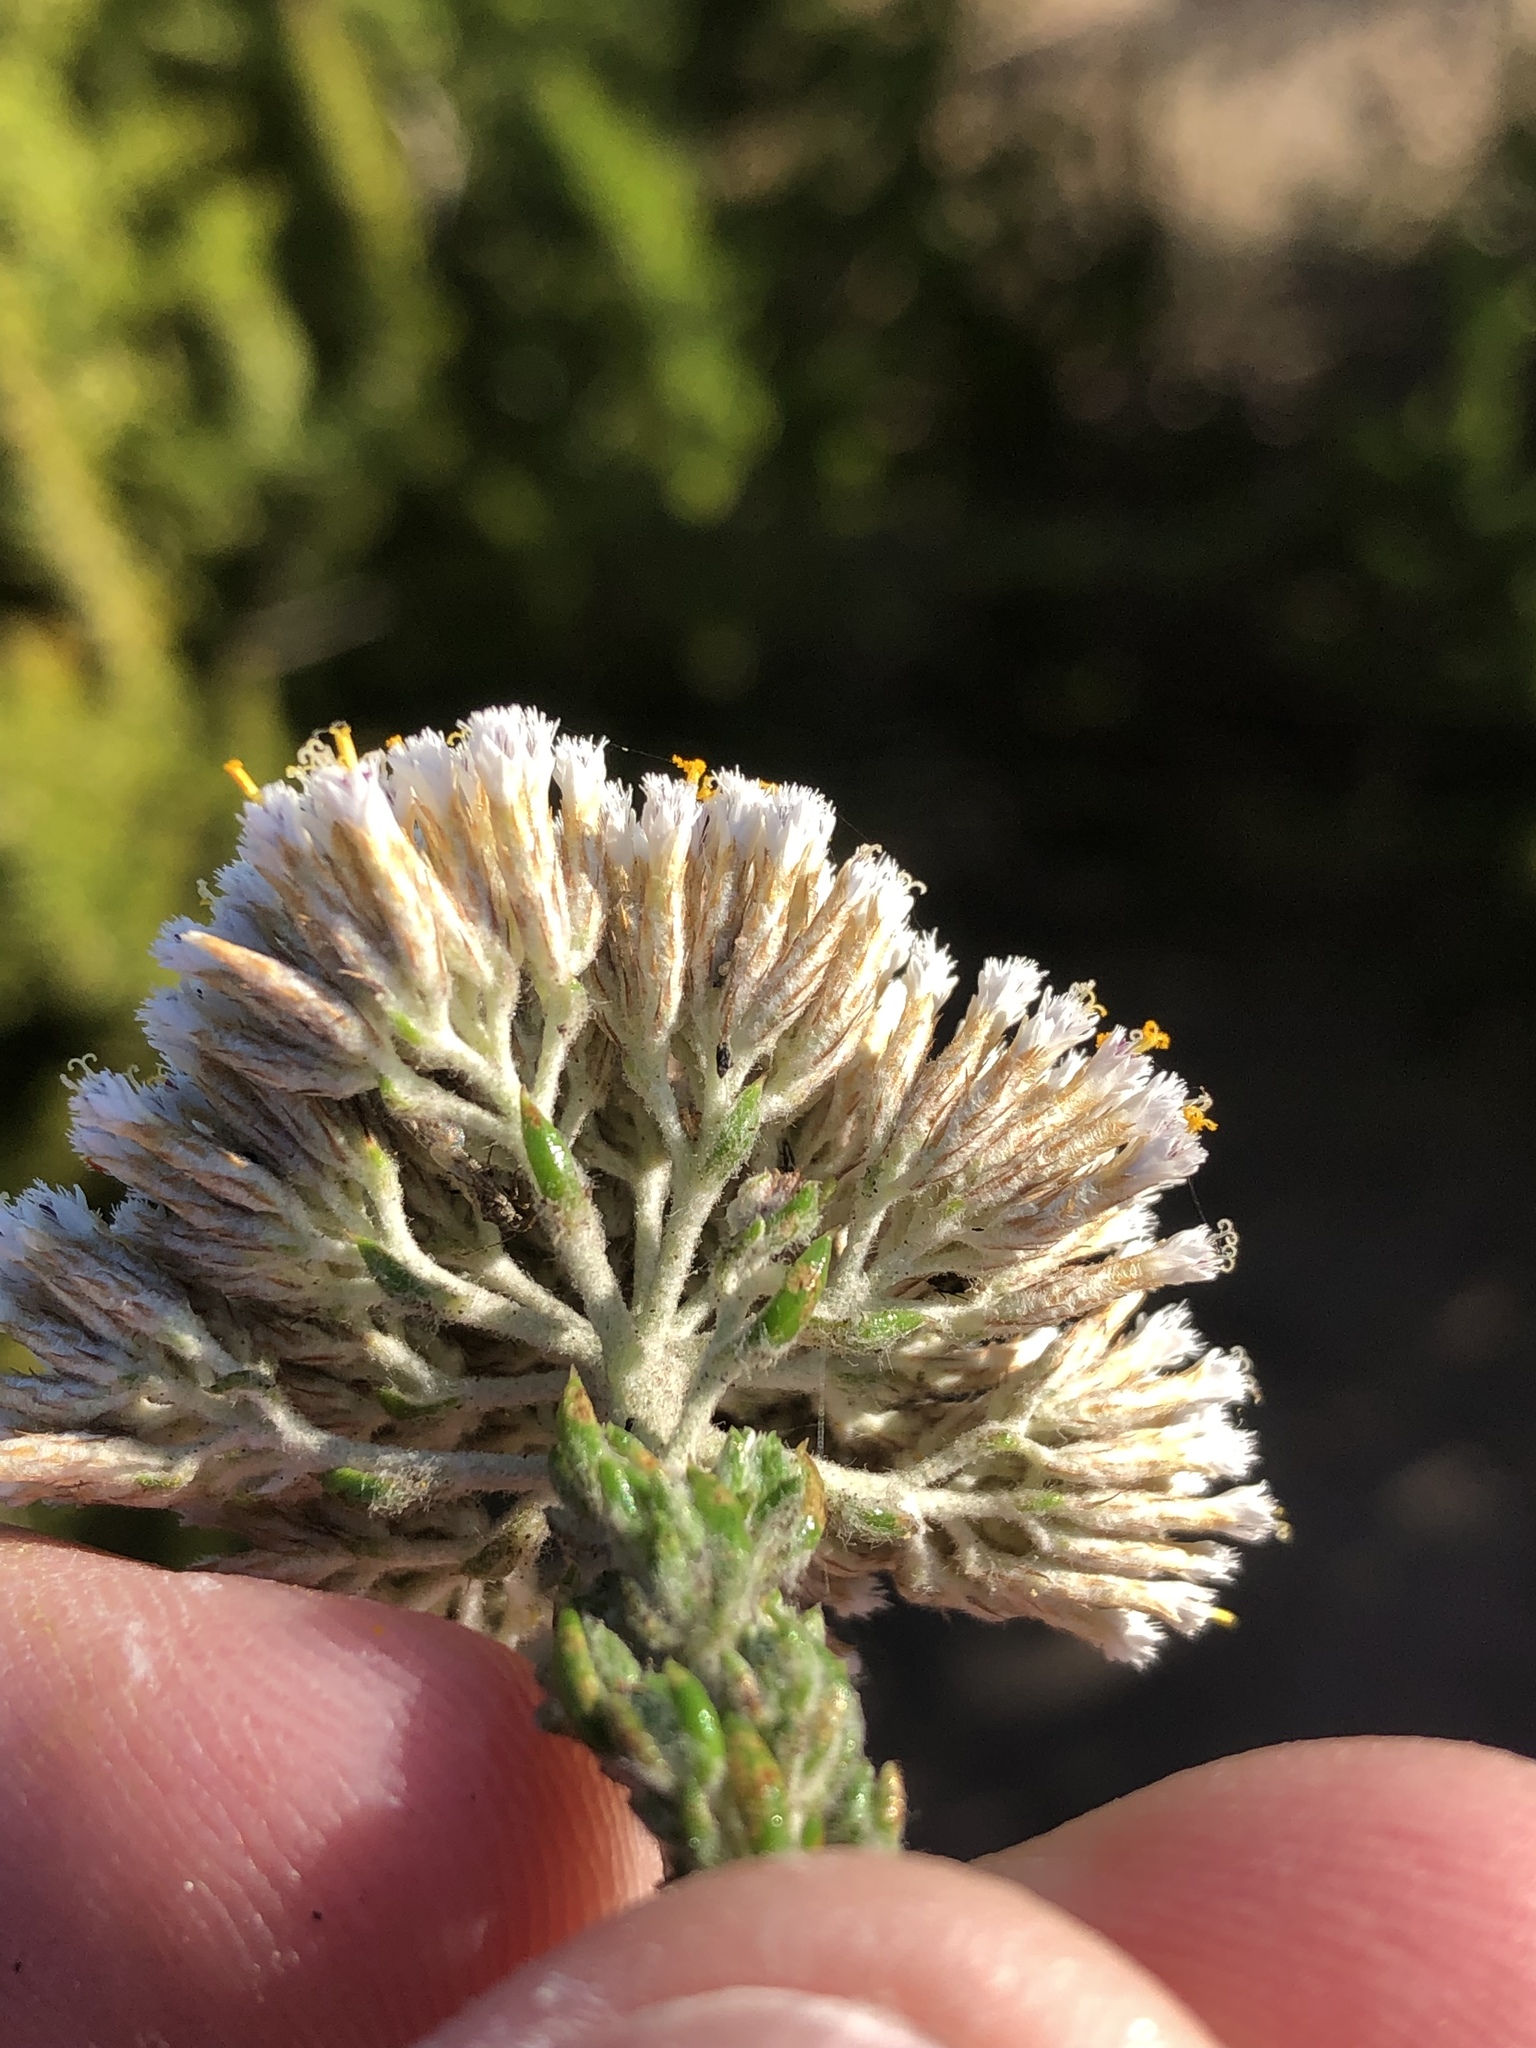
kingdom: Plantae
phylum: Tracheophyta
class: Magnoliopsida
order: Asterales
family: Asteraceae
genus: Metalasia
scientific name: Metalasia pungens
